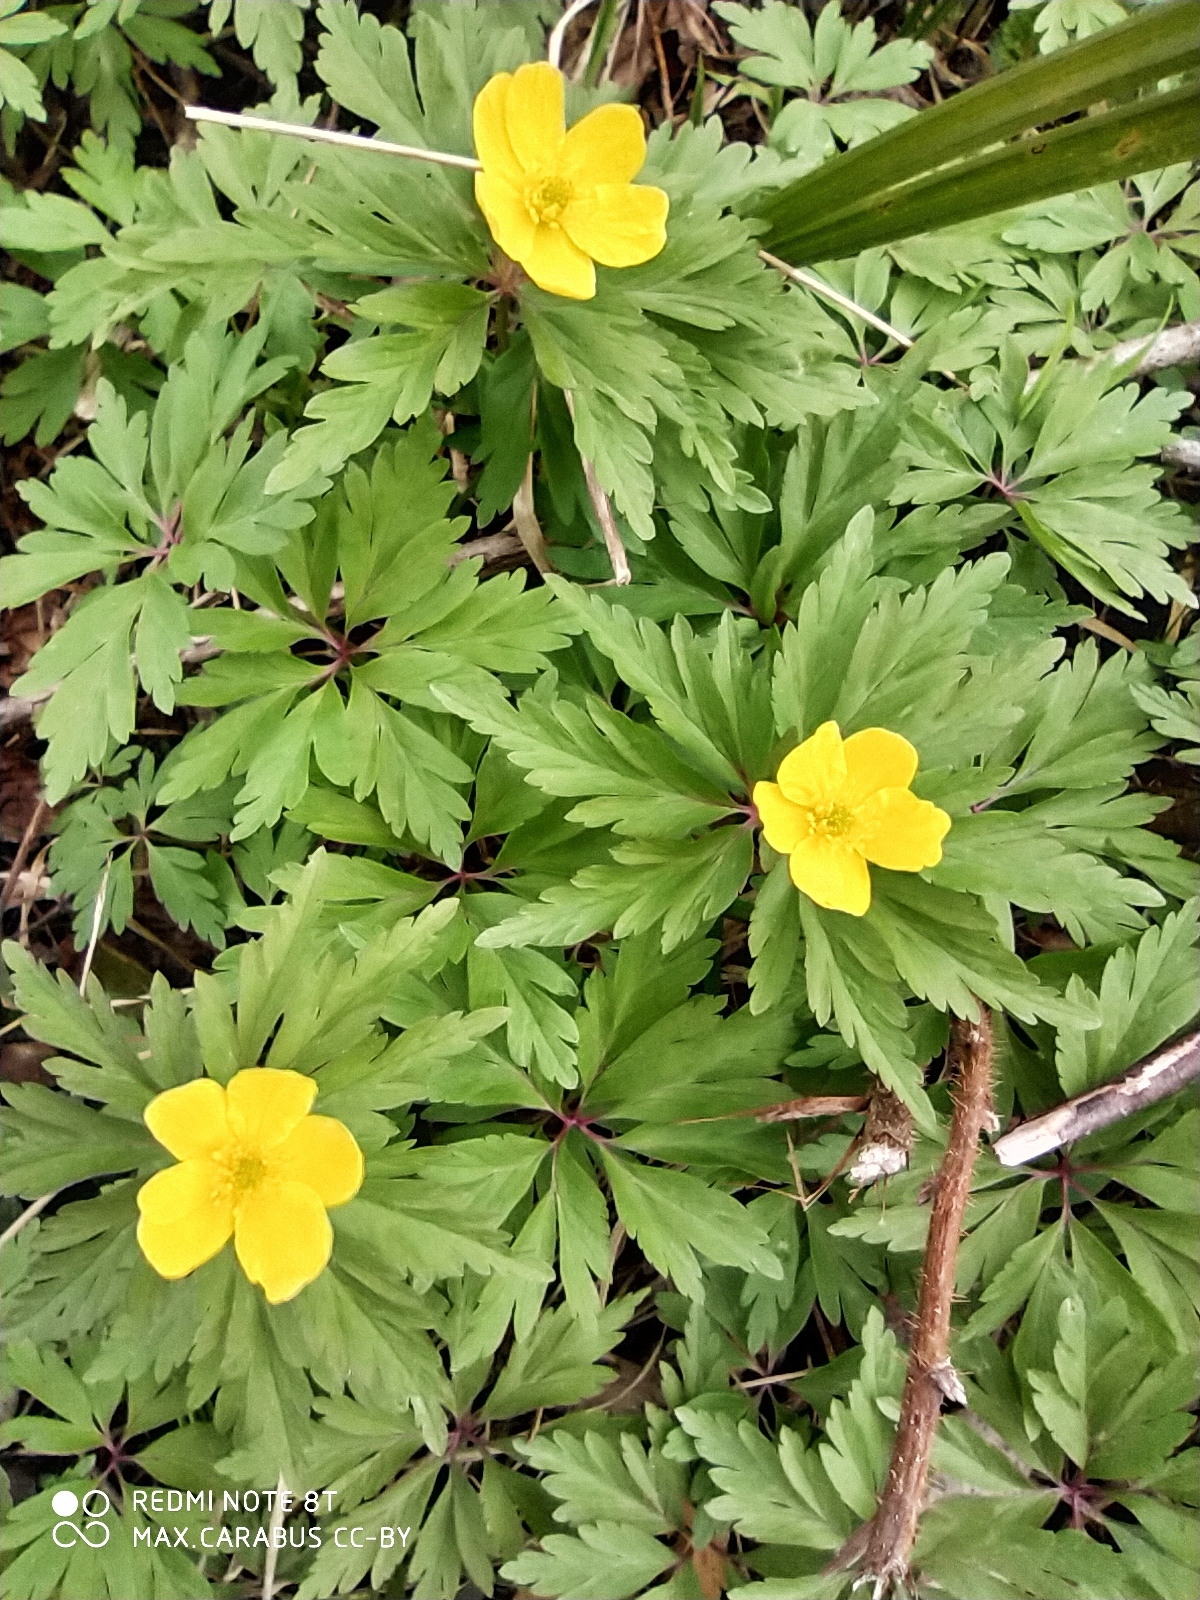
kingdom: Plantae
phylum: Tracheophyta
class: Magnoliopsida
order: Ranunculales
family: Ranunculaceae
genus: Anemone
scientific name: Anemone ranunculoides
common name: Yellow anemone
